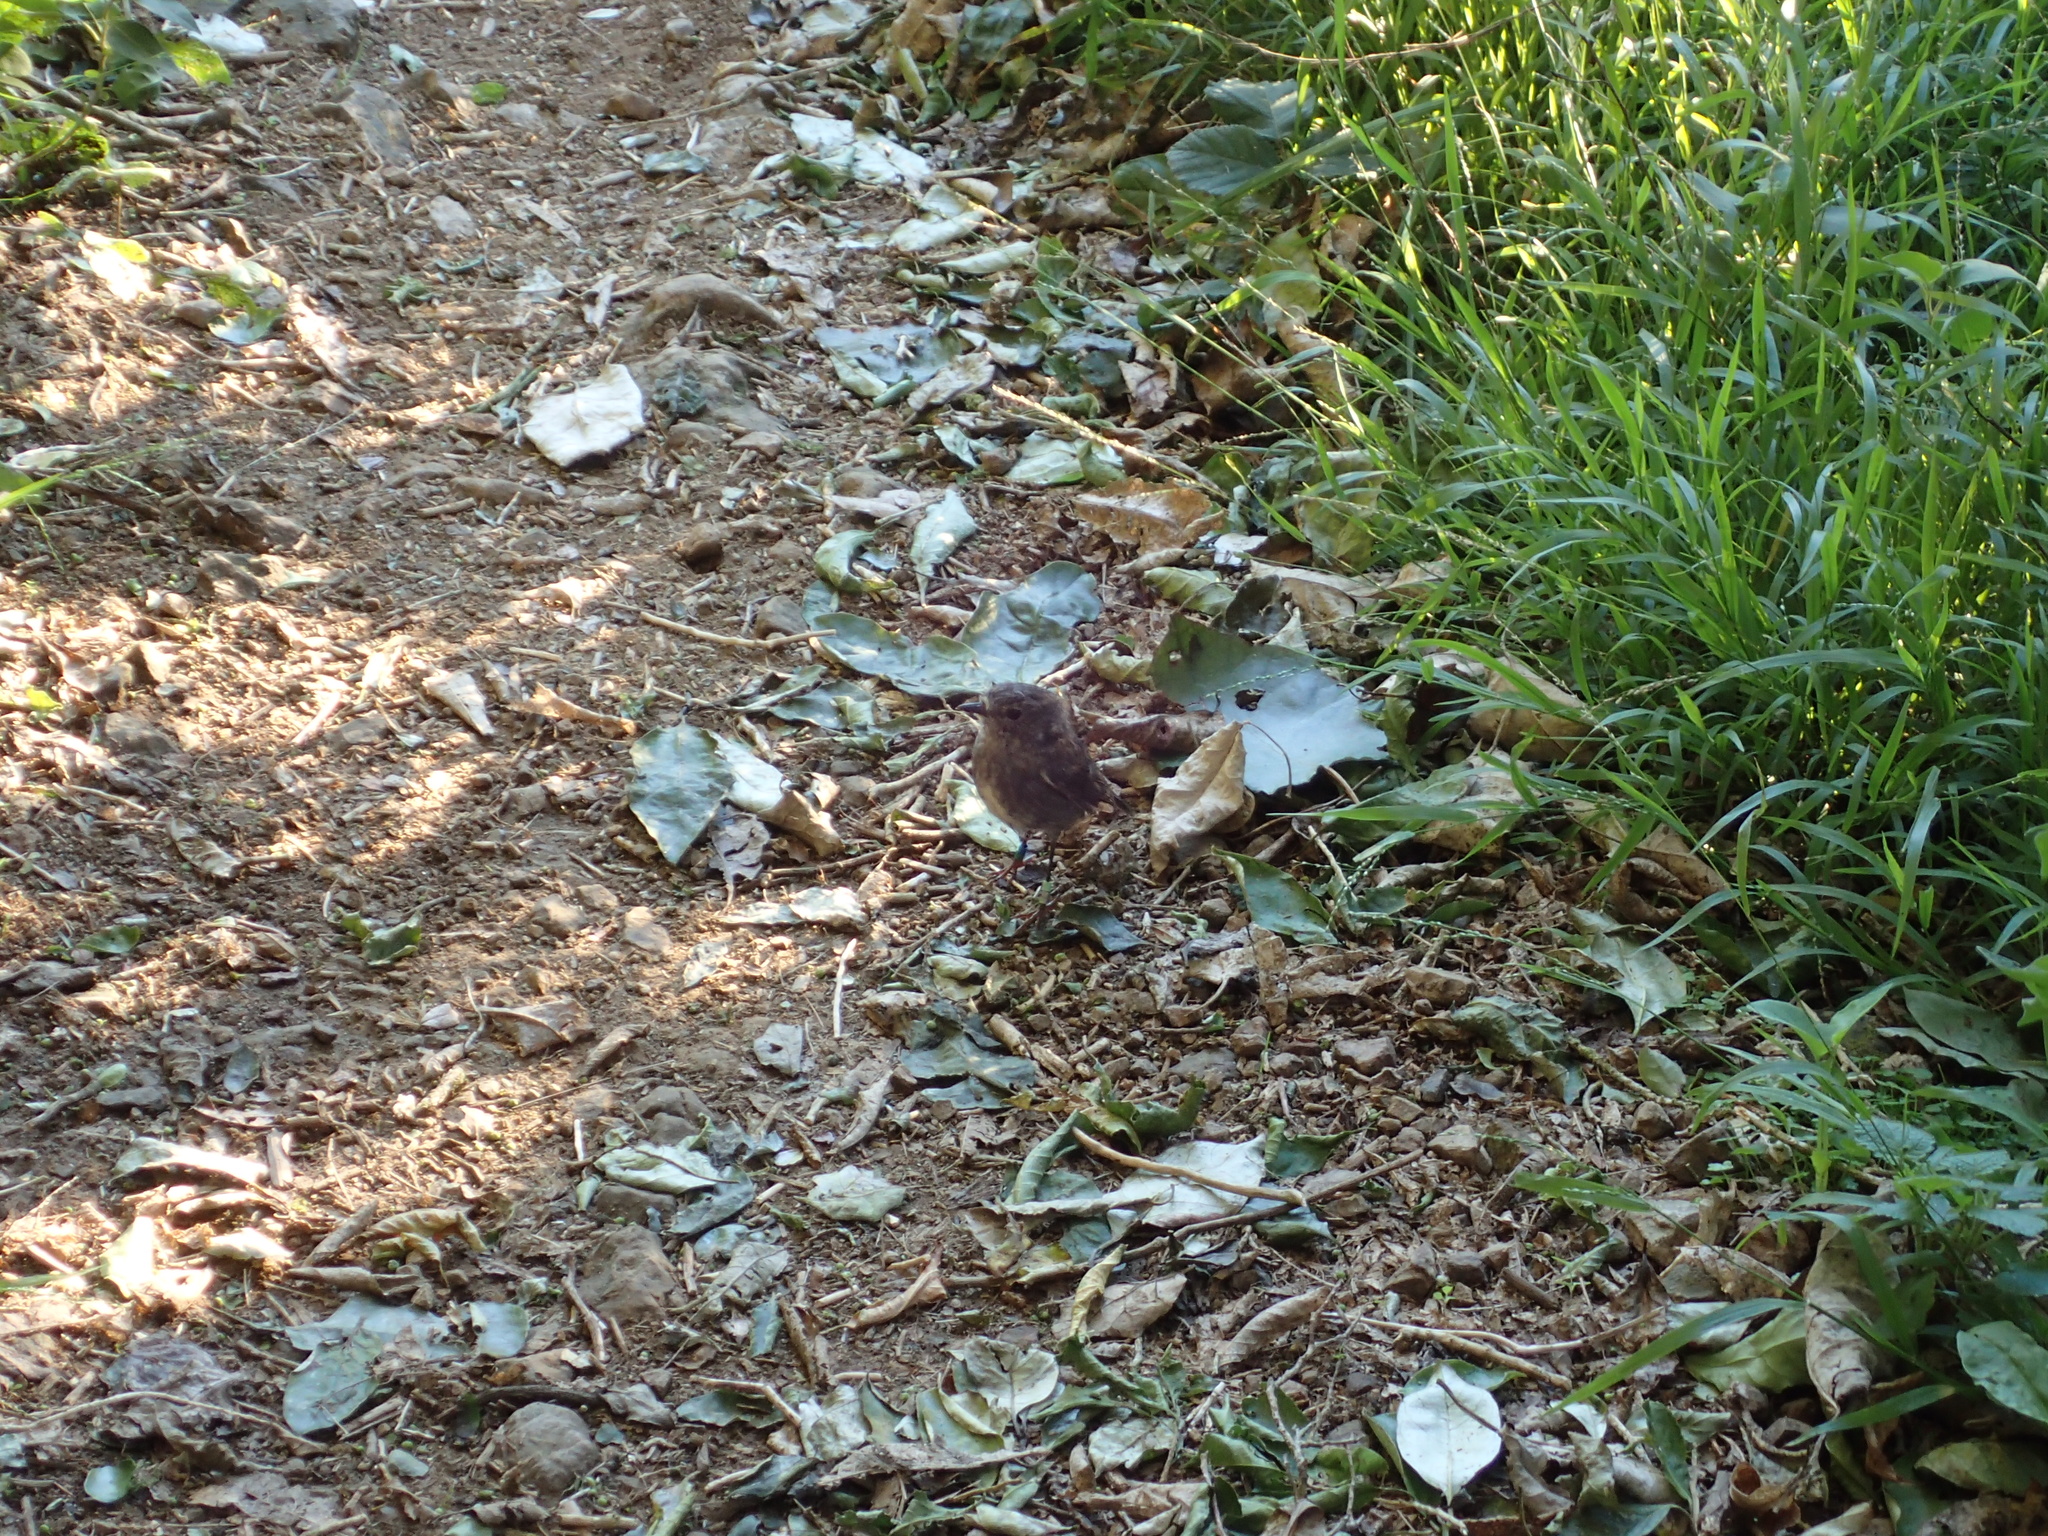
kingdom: Animalia
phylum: Chordata
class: Aves
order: Passeriformes
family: Petroicidae
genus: Petroica
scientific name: Petroica australis
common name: New zealand robin
